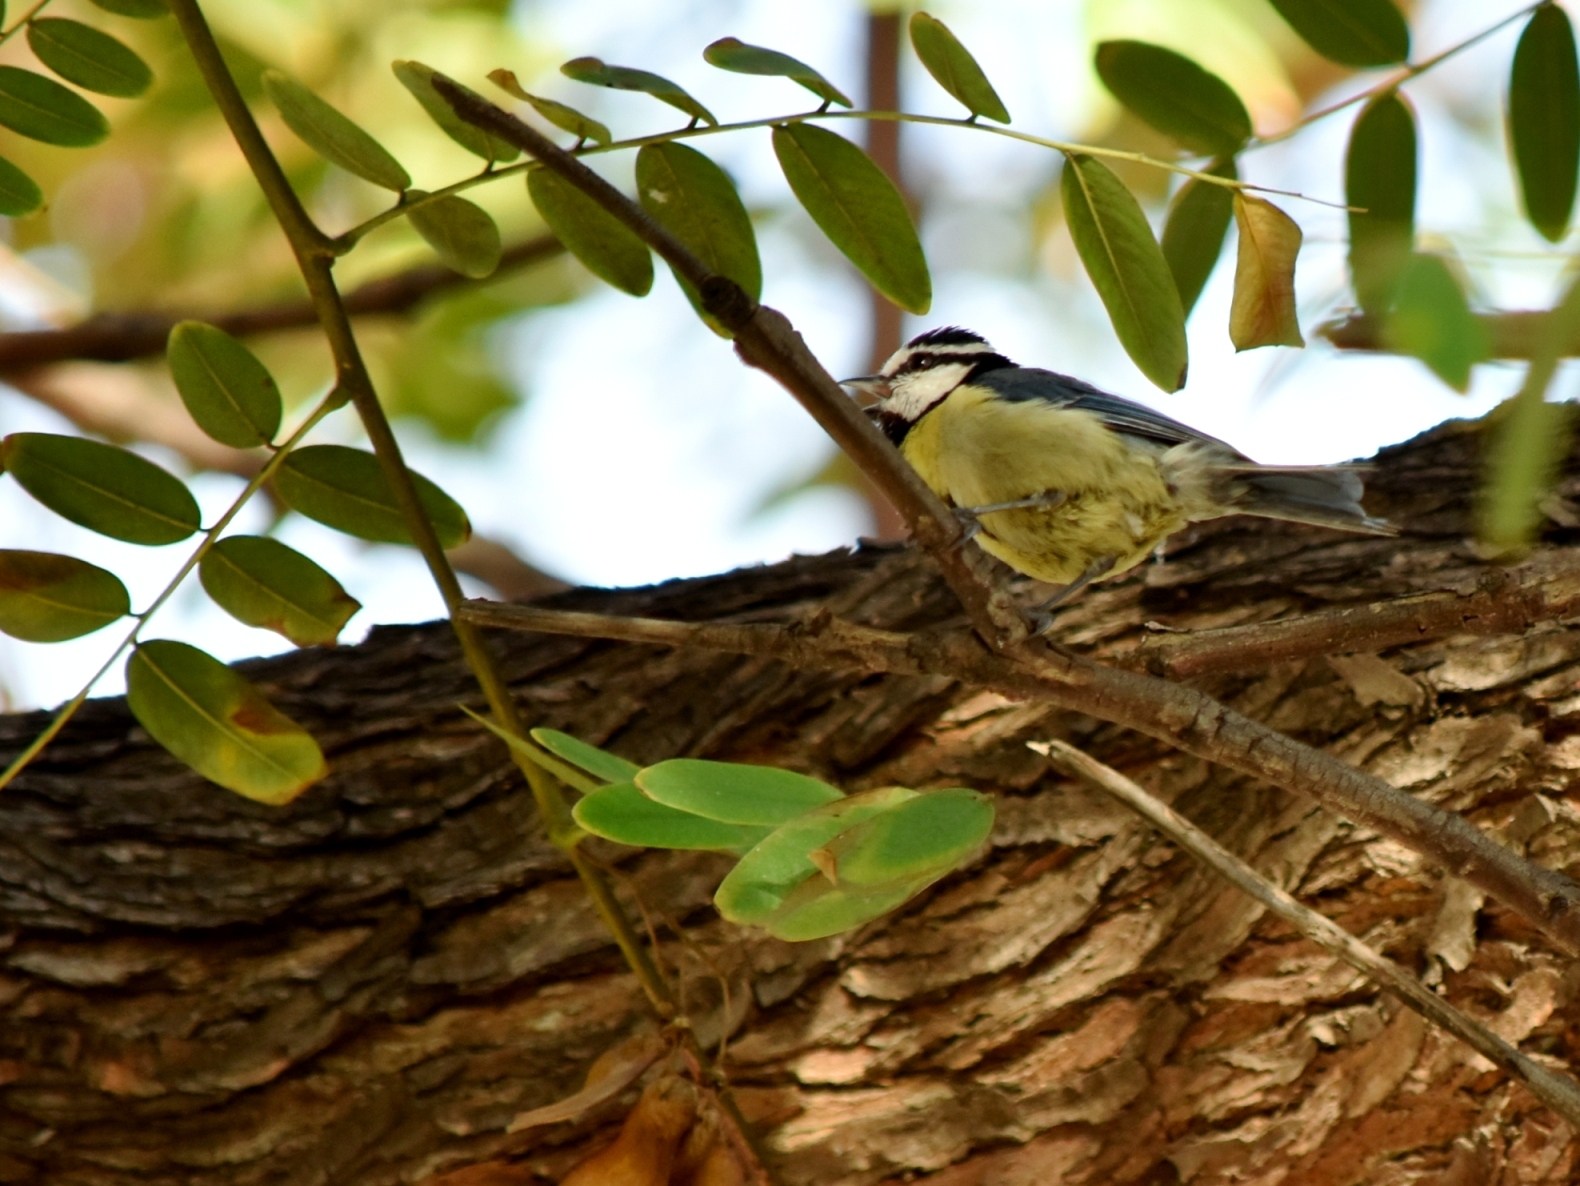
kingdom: Animalia
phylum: Chordata
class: Aves
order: Passeriformes
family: Paridae
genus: Cyanistes
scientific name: Cyanistes teneriffae
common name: African blue tit
